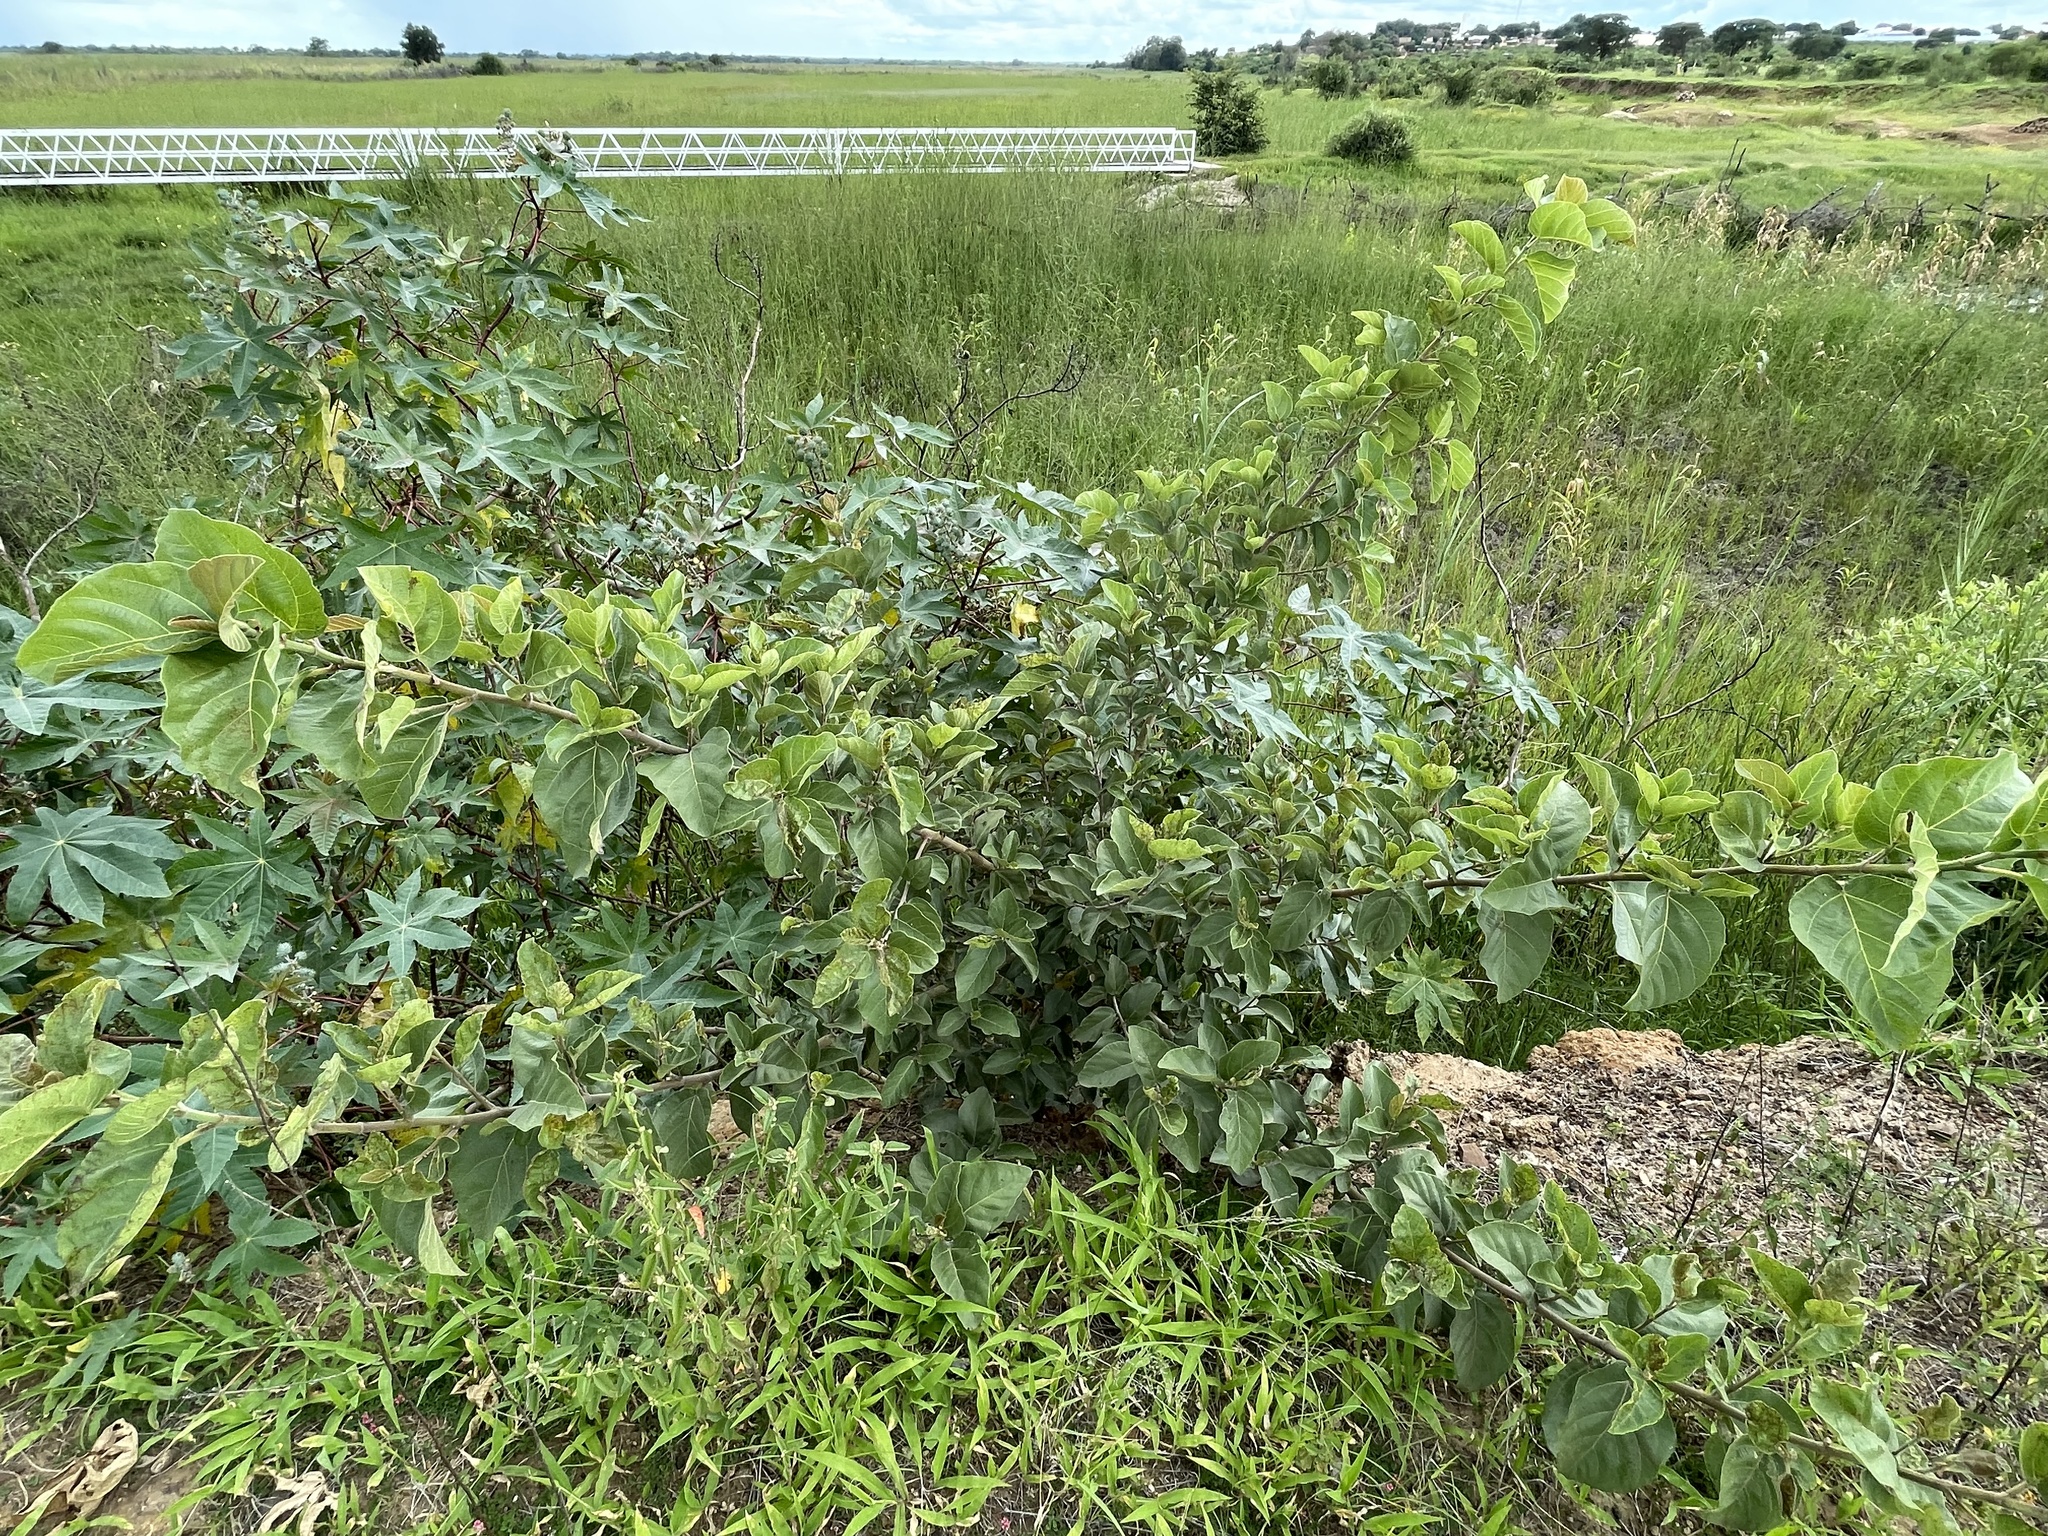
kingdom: Plantae
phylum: Tracheophyta
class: Magnoliopsida
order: Rosales
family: Moraceae
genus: Ficus
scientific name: Ficus sycomorus
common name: Sycomore
